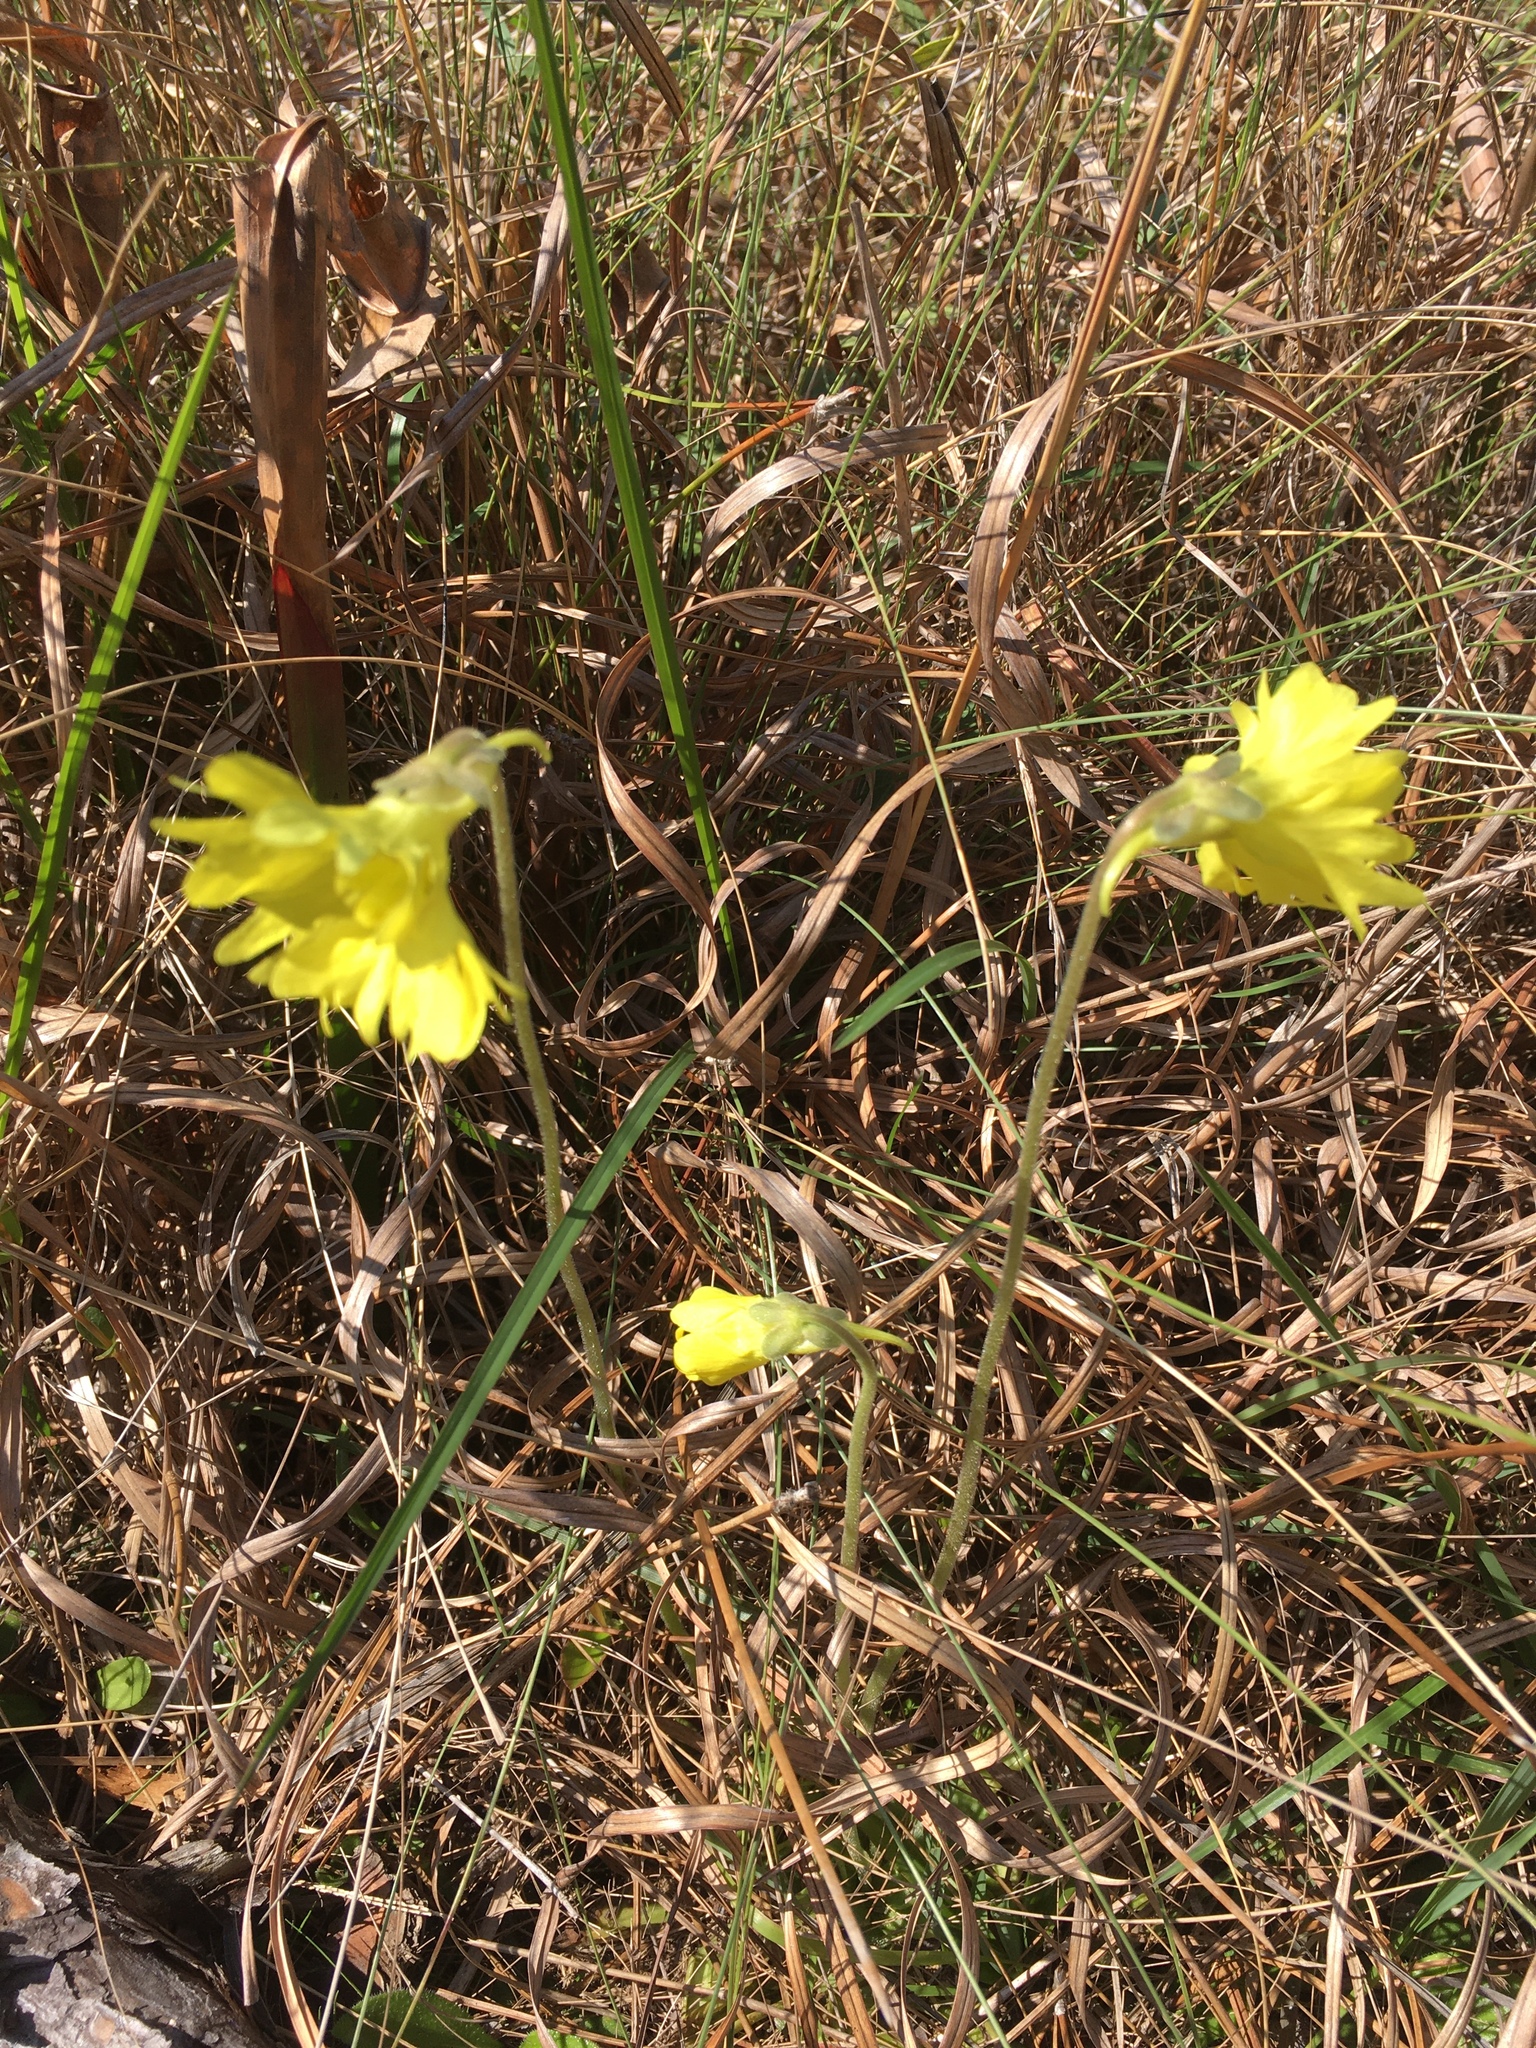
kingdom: Plantae
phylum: Tracheophyta
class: Magnoliopsida
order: Lamiales
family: Lentibulariaceae
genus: Pinguicula
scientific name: Pinguicula lutea
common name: Yellow butterwort
